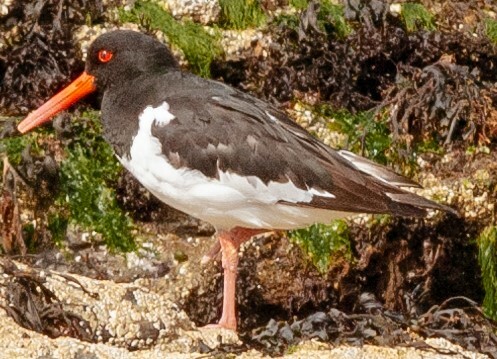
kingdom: Animalia
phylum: Chordata
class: Aves
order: Charadriiformes
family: Haematopodidae
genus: Haematopus
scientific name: Haematopus ostralegus
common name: Eurasian oystercatcher
